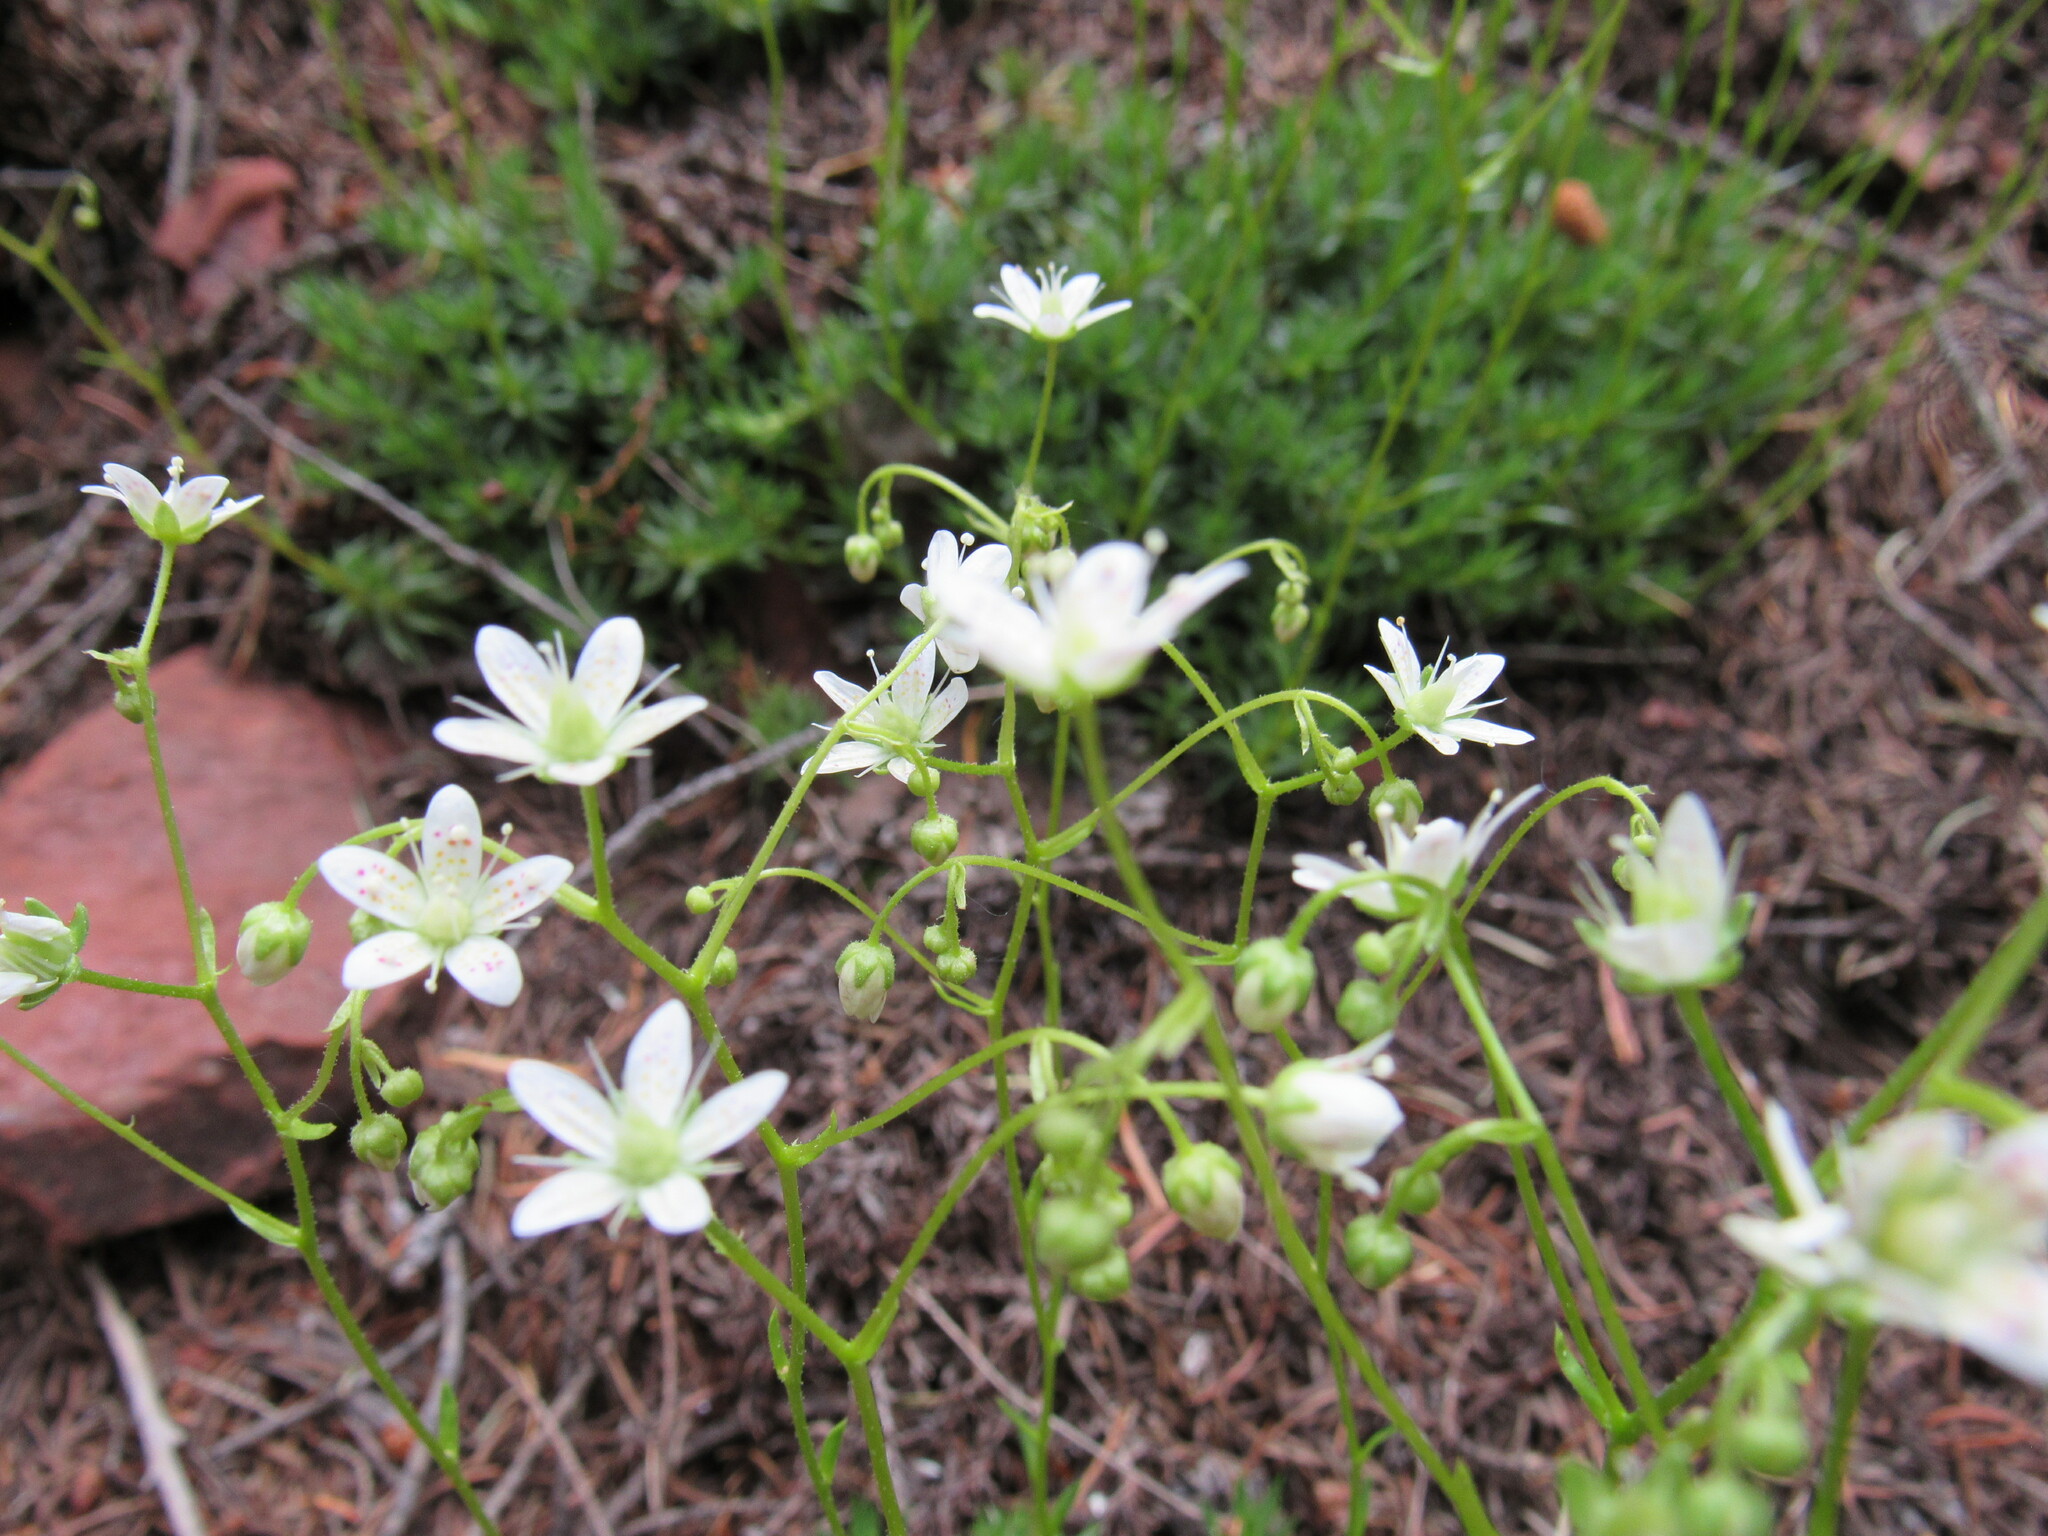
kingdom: Plantae
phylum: Tracheophyta
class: Magnoliopsida
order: Saxifragales
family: Saxifragaceae
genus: Saxifraga
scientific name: Saxifraga bronchialis
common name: Matted saxifrage
